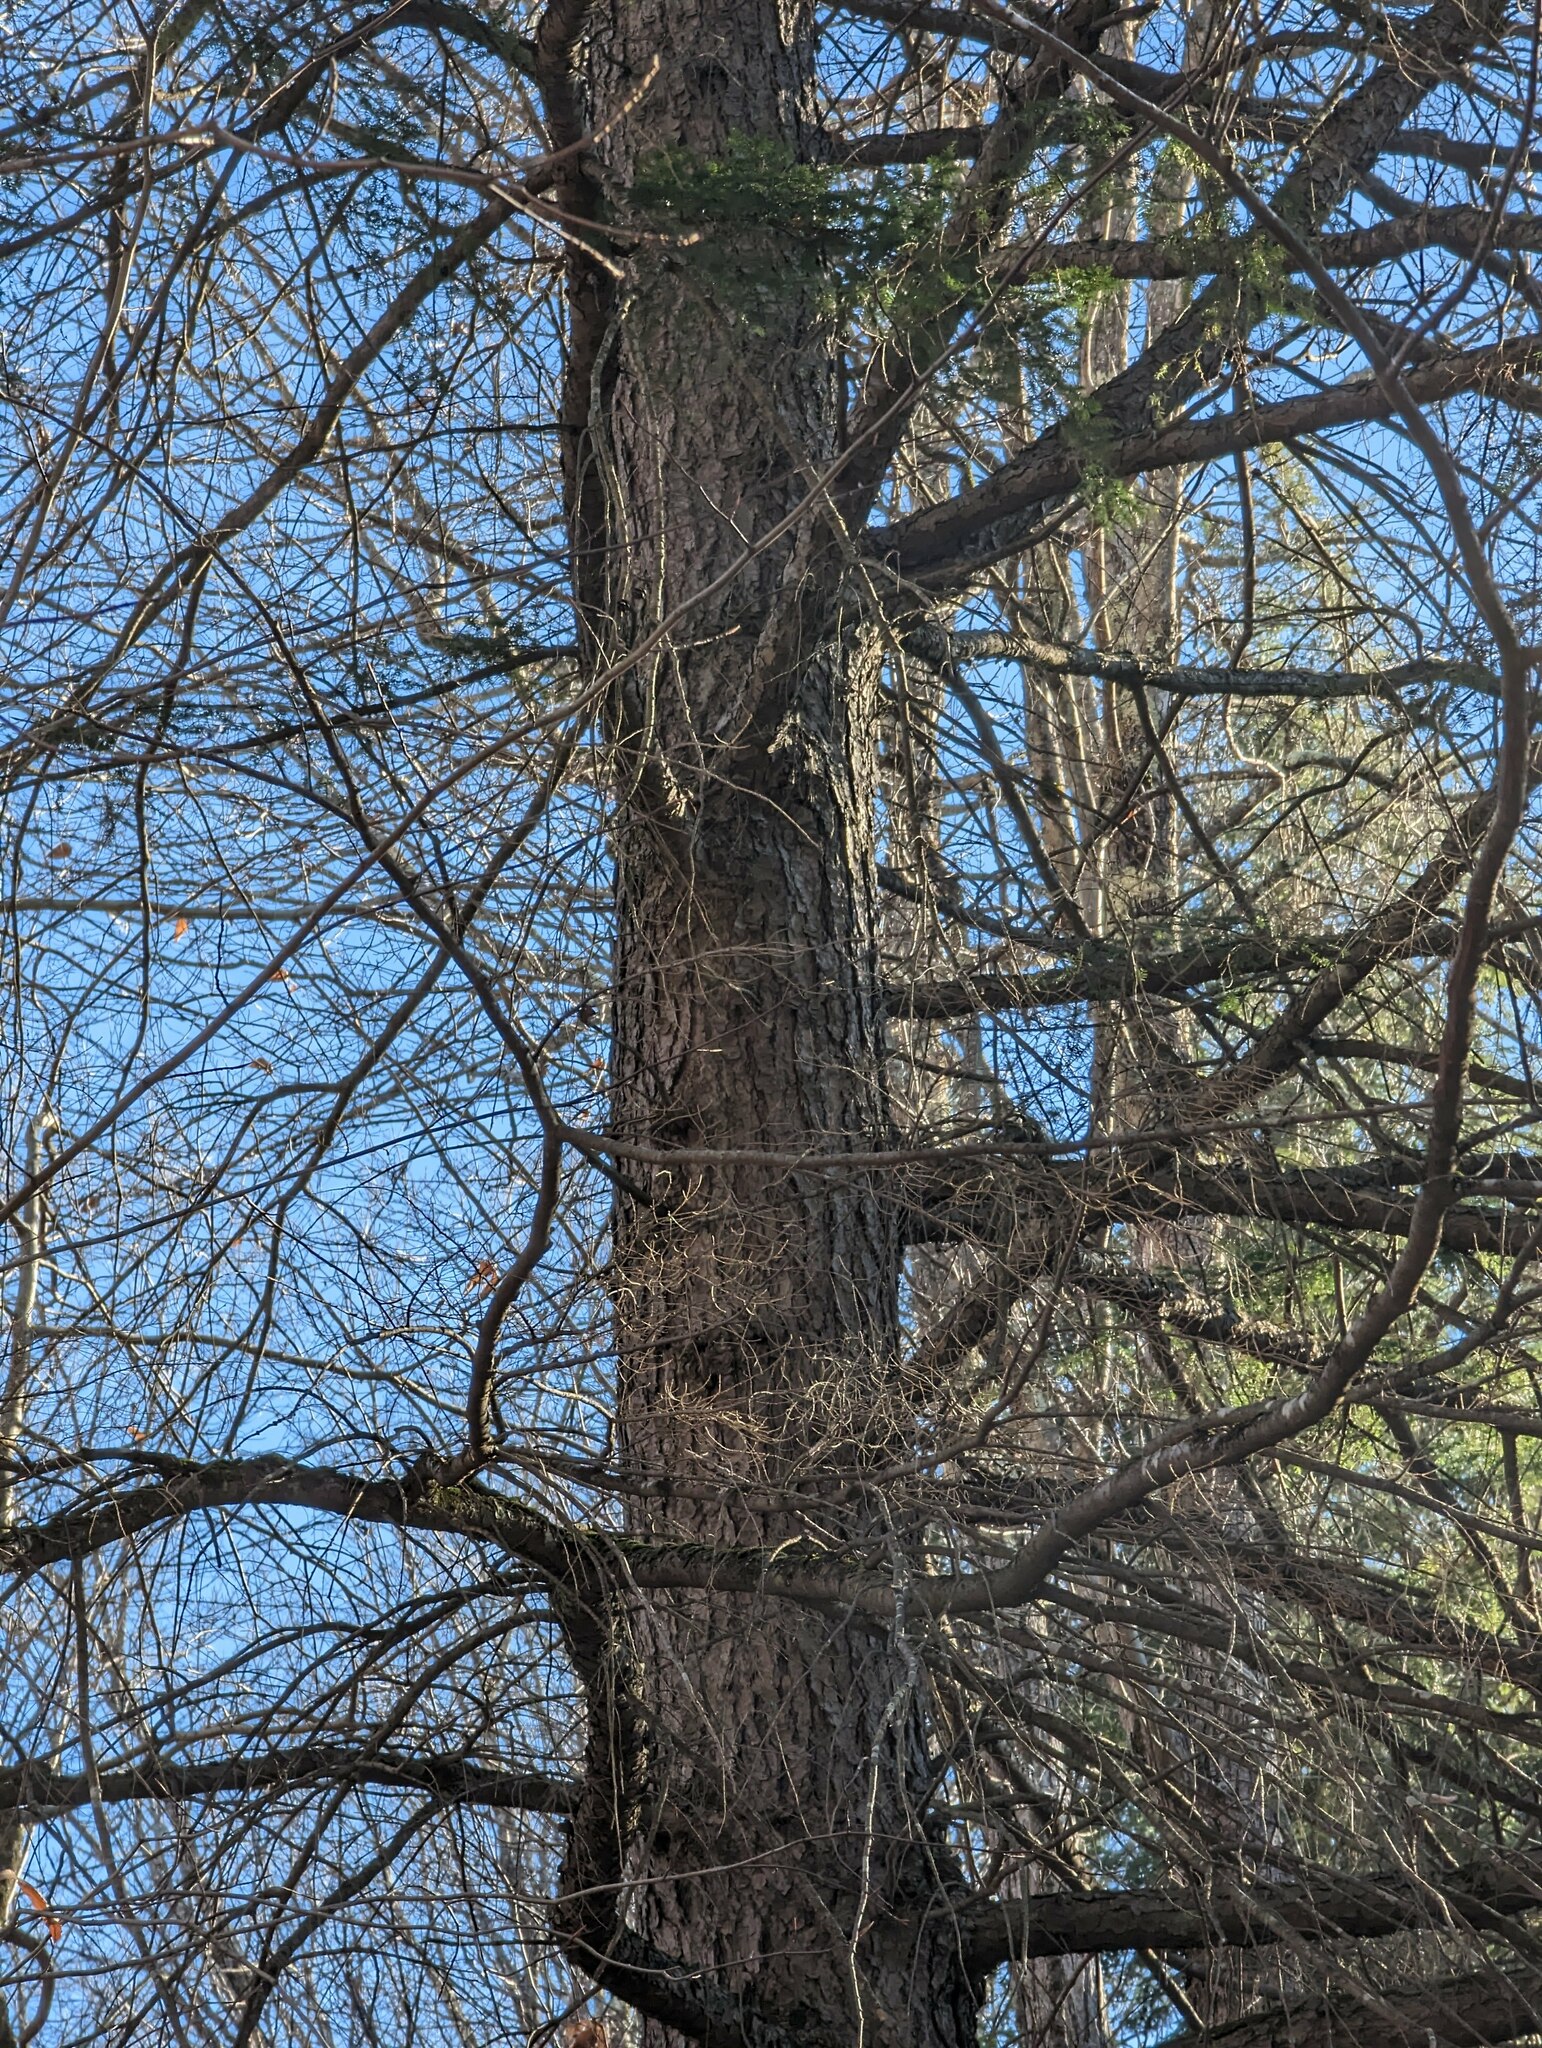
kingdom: Plantae
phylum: Tracheophyta
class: Pinopsida
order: Pinales
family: Pinaceae
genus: Tsuga
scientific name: Tsuga canadensis
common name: Eastern hemlock
